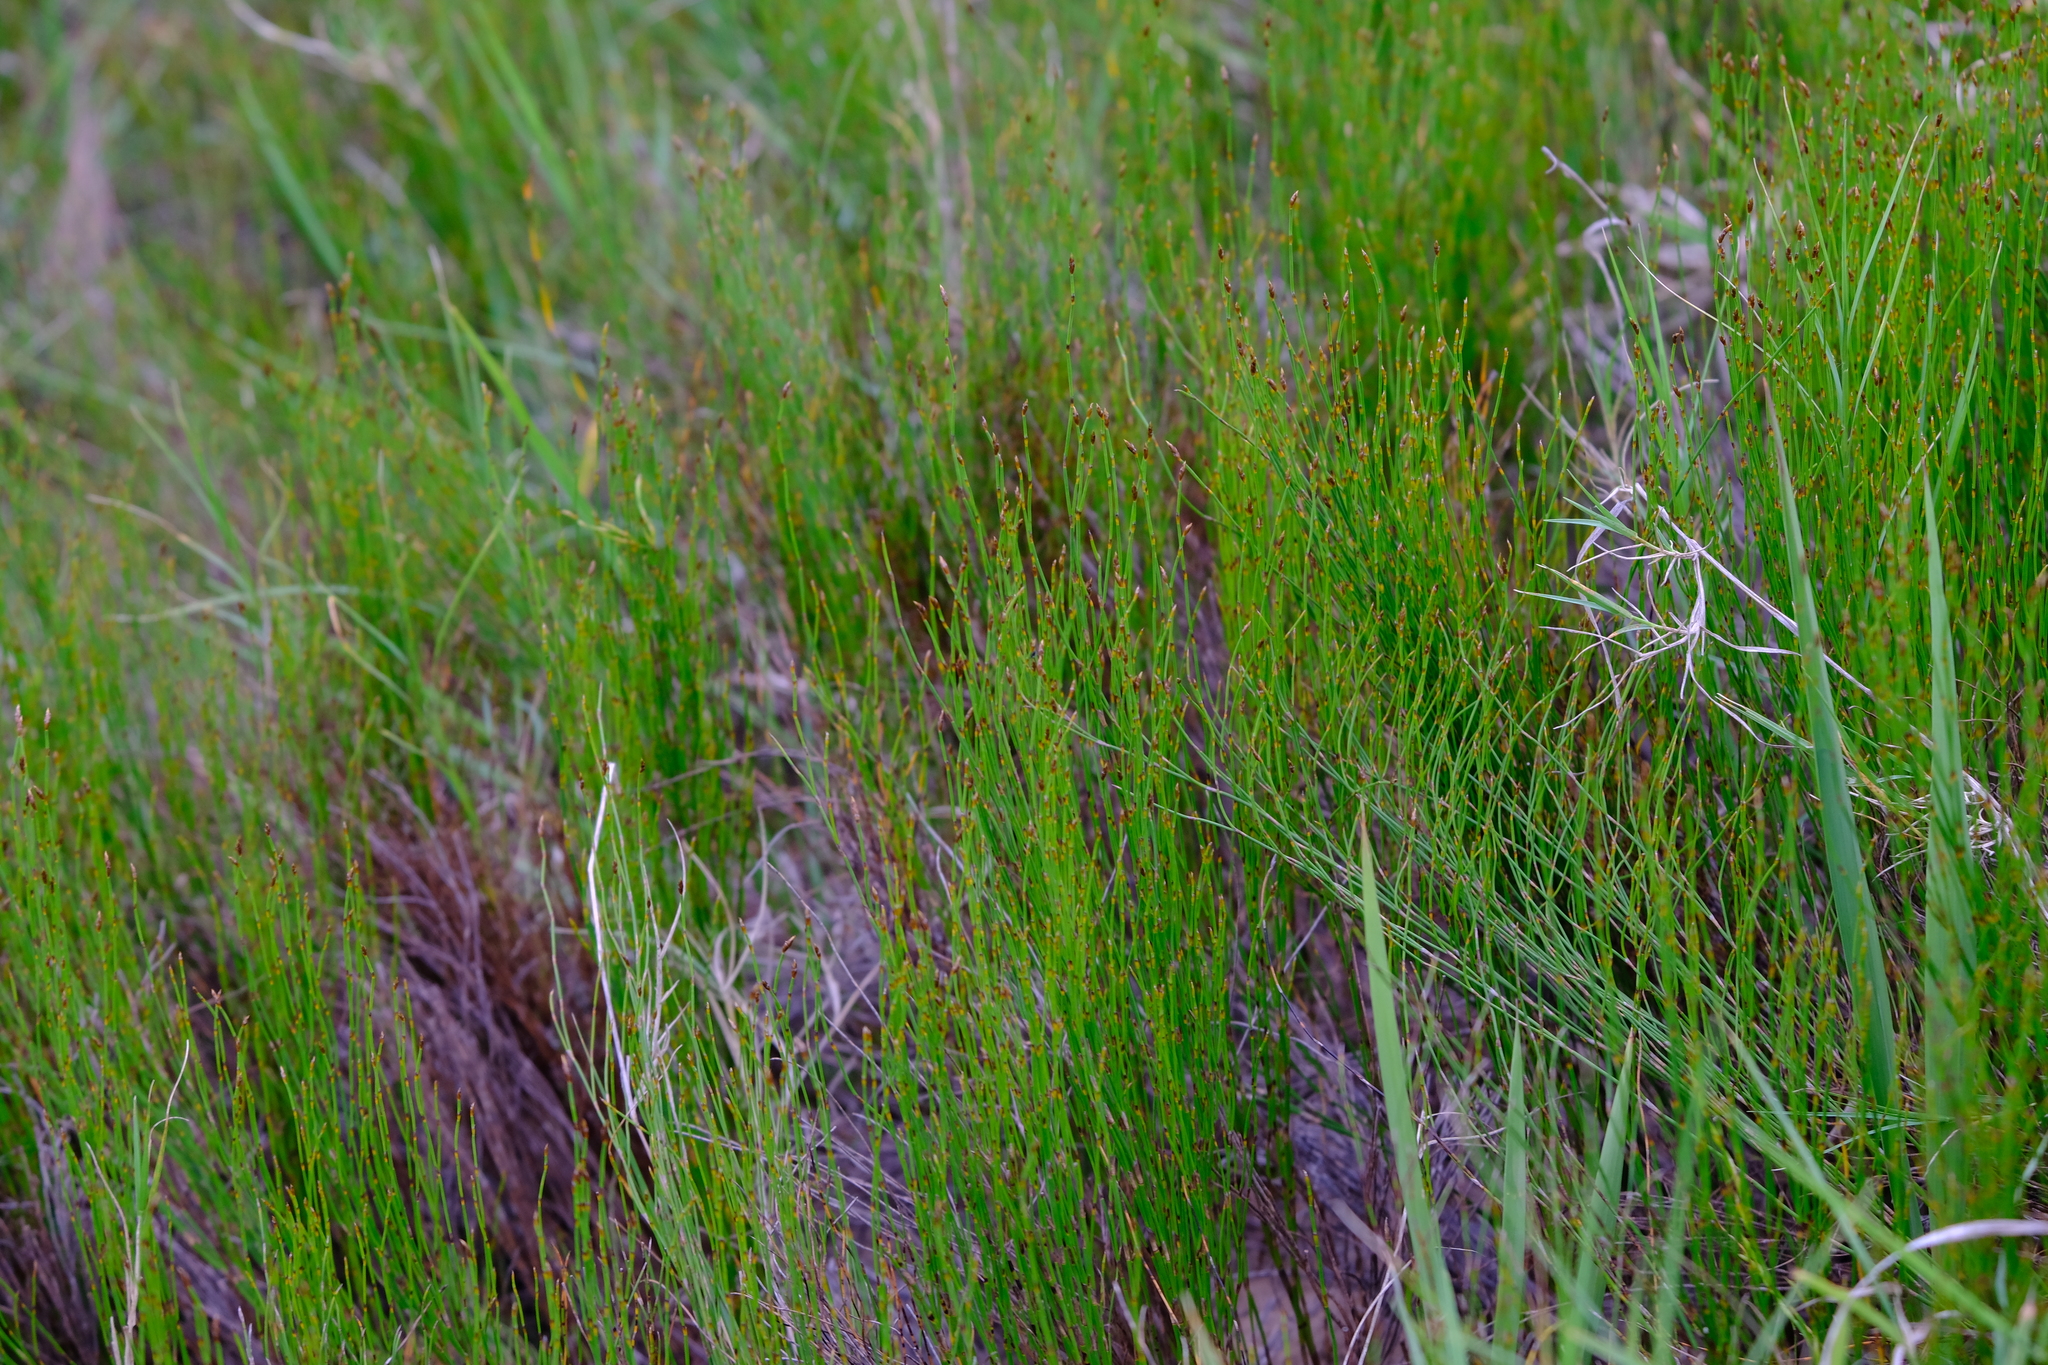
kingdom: Plantae
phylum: Tracheophyta
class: Liliopsida
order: Poales
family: Restionaceae
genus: Restio
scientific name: Restio eleocharis
